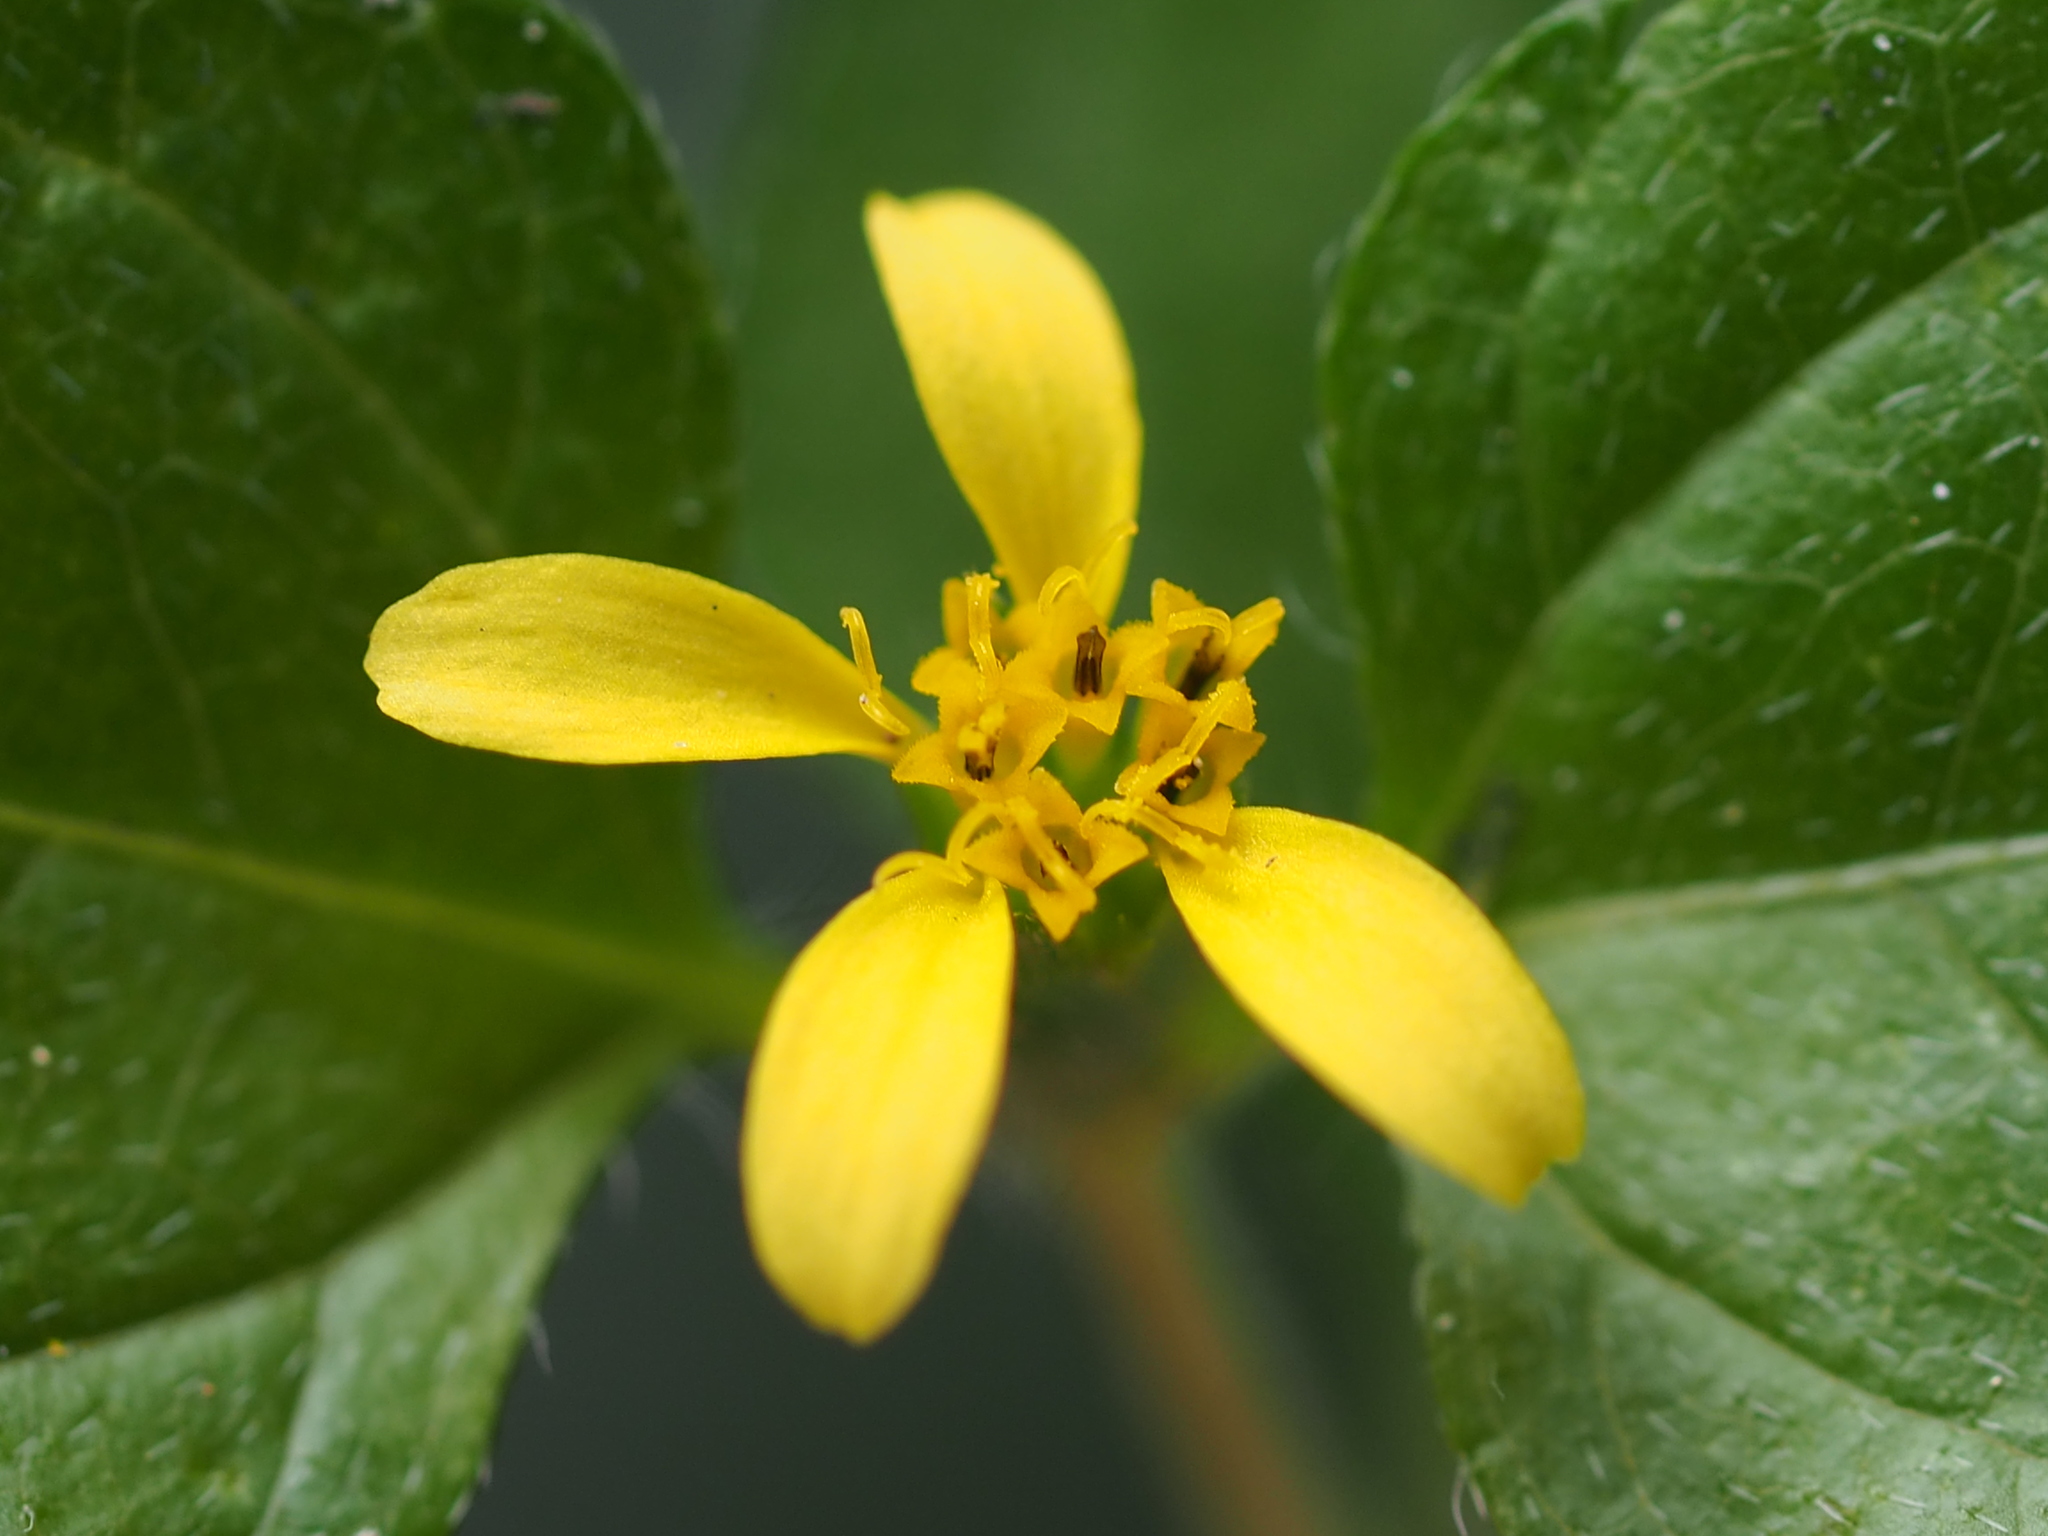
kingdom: Plantae
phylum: Tracheophyta
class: Magnoliopsida
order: Asterales
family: Asteraceae
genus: Calyptocarpus
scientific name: Calyptocarpus vialis
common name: Straggler daisy
